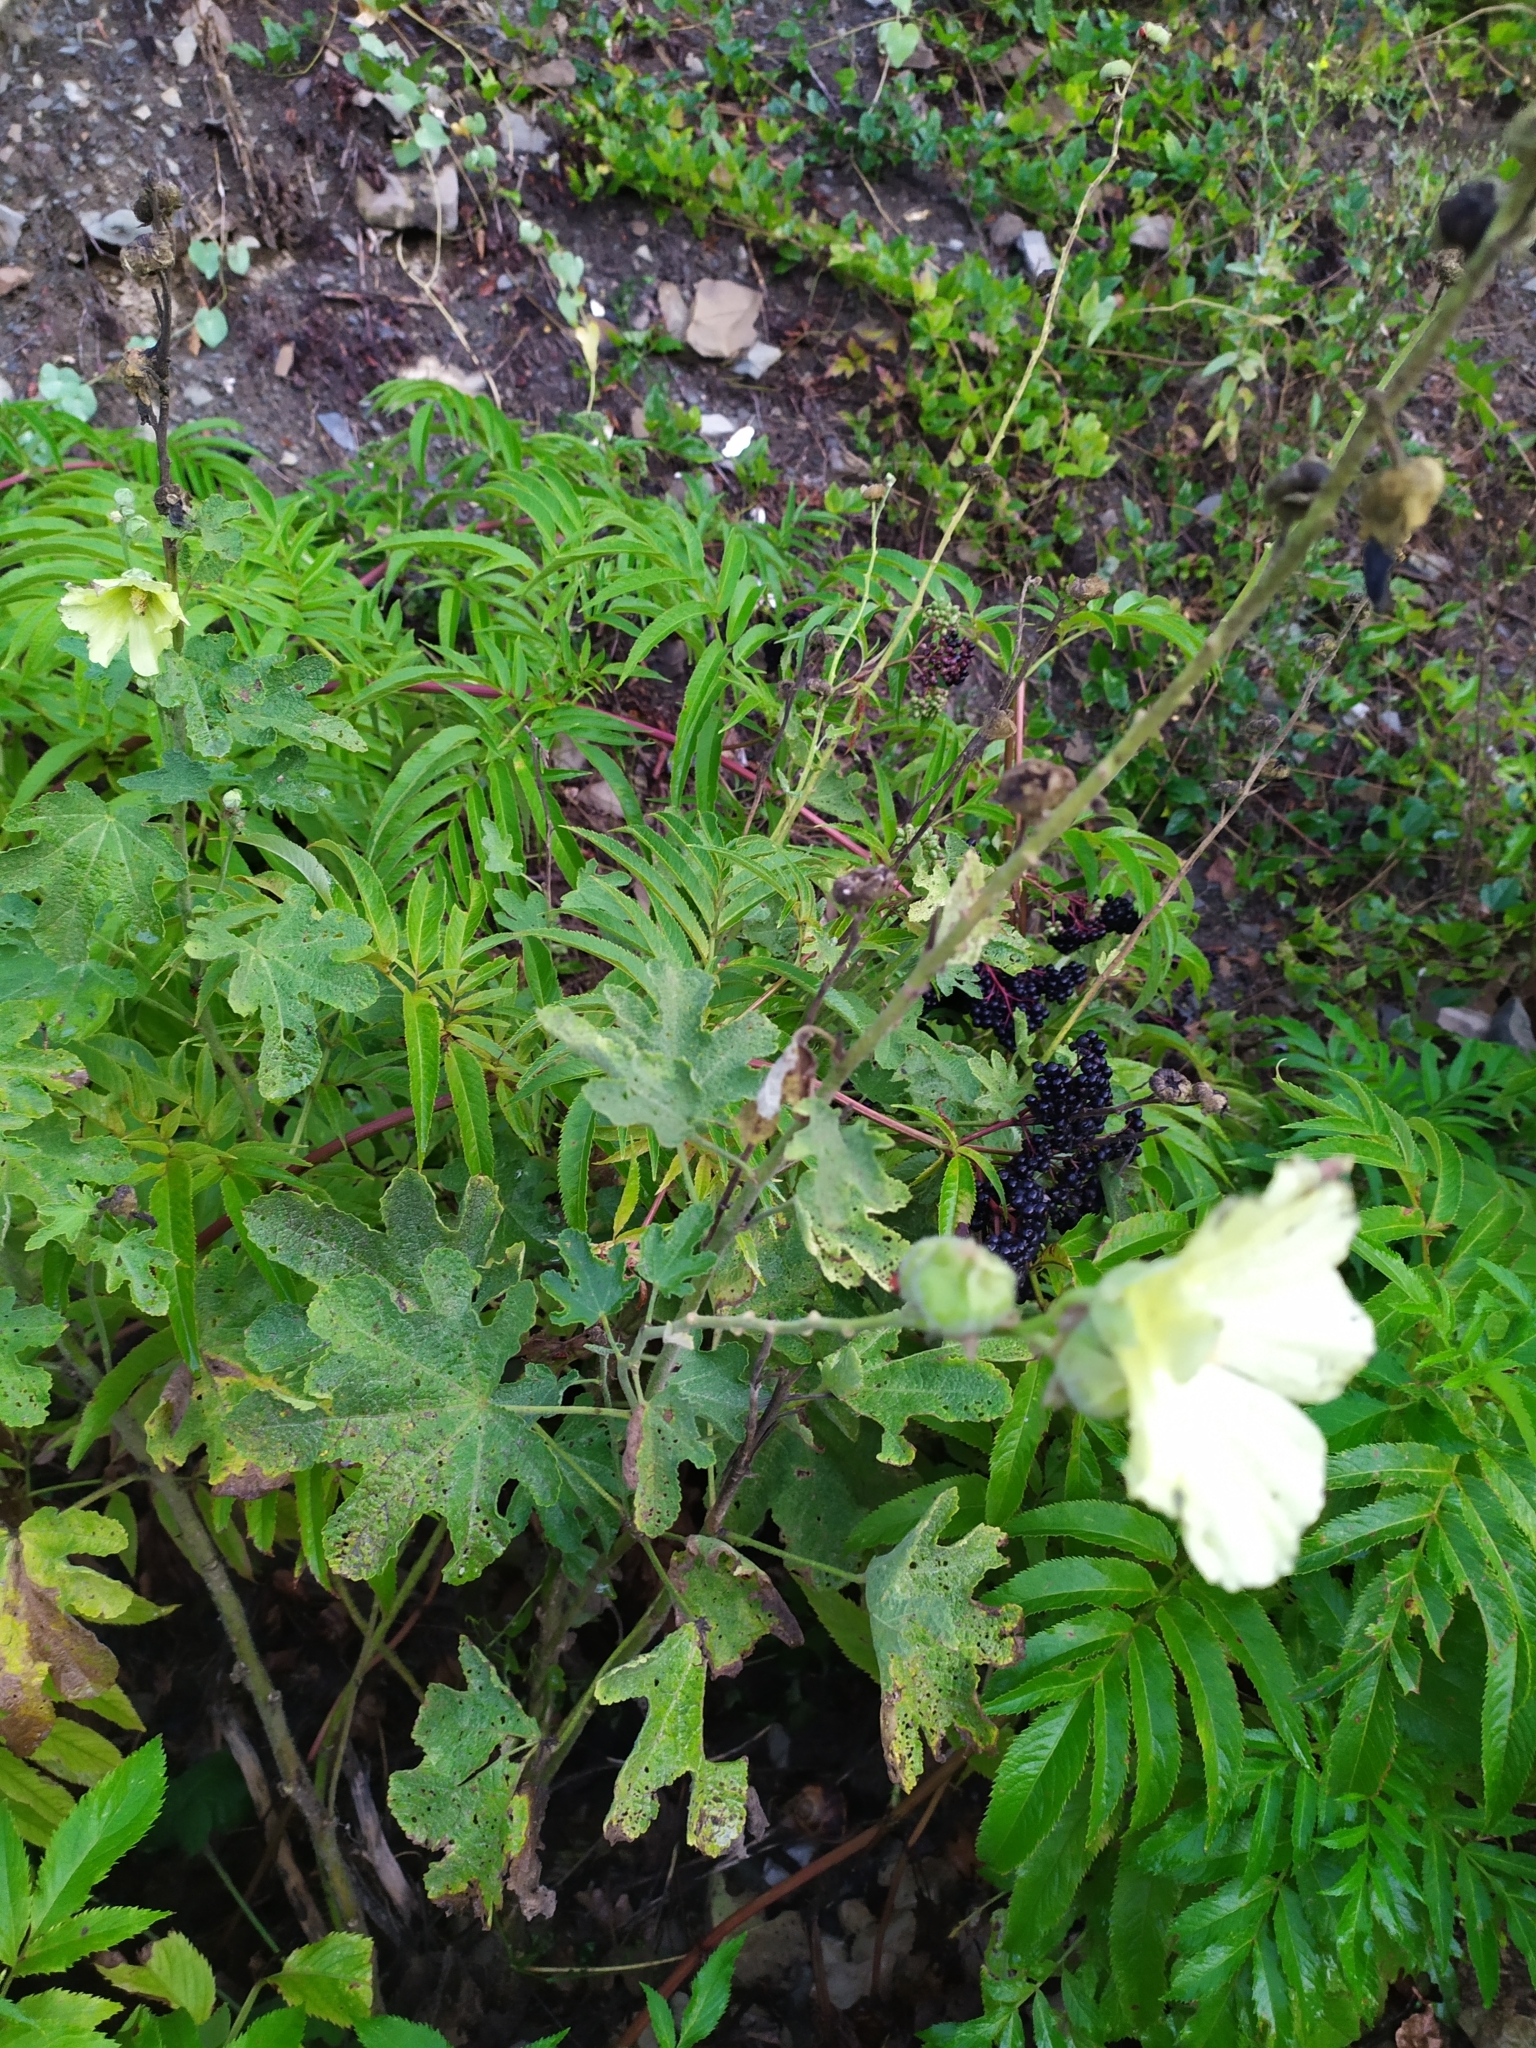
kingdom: Plantae
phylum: Tracheophyta
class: Magnoliopsida
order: Malvales
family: Malvaceae
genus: Alcea
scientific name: Alcea rugosa
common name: Russian hollyhock
